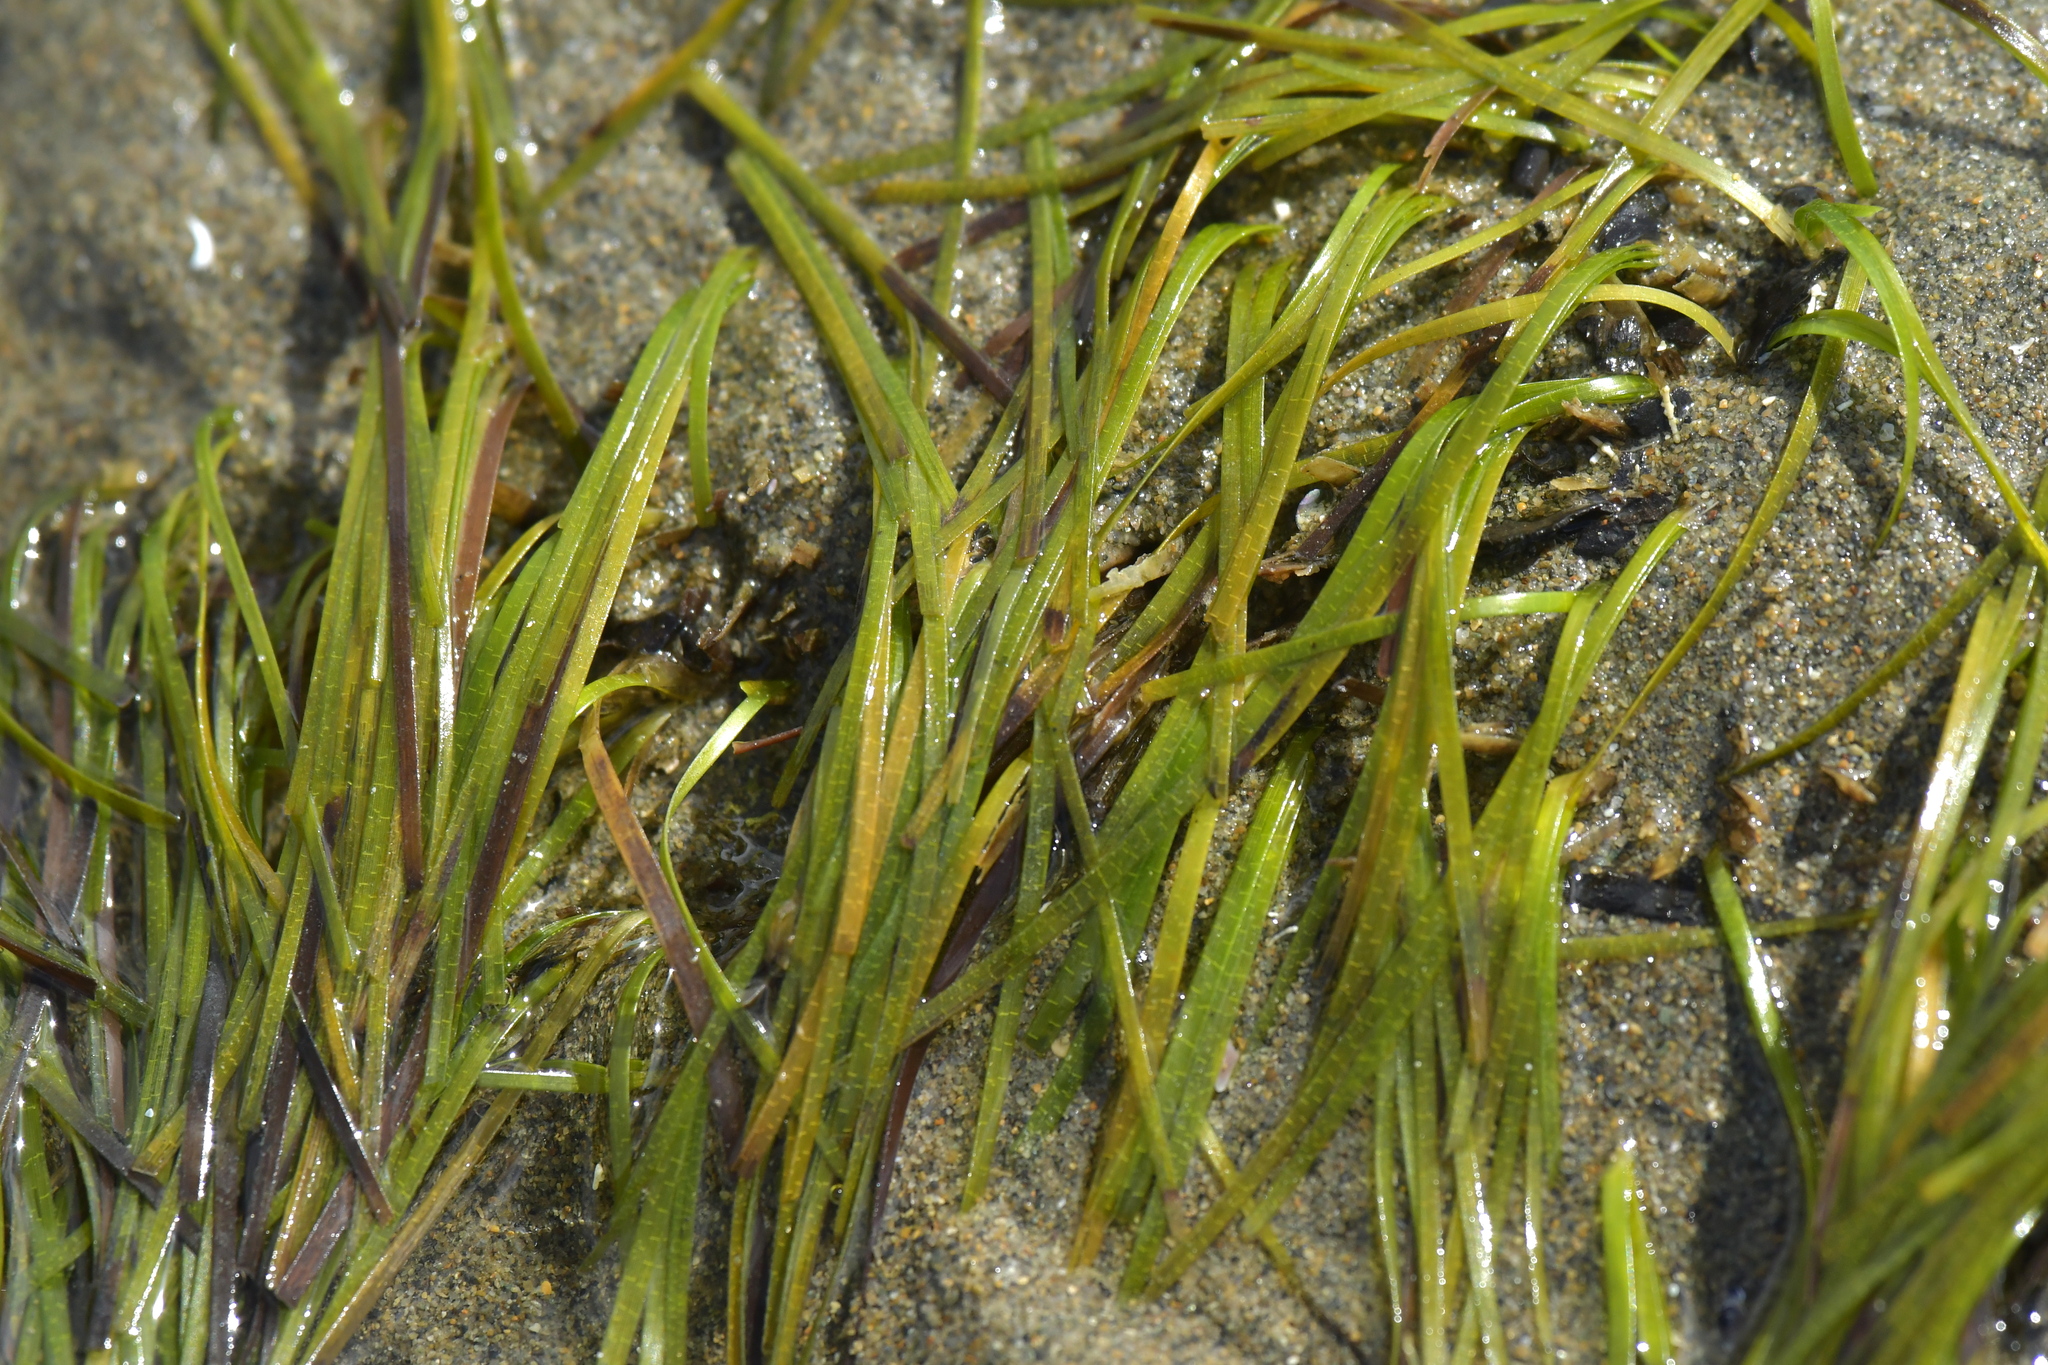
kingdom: Plantae
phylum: Tracheophyta
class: Liliopsida
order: Alismatales
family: Zosteraceae
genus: Zostera
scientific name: Zostera muelleri
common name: Species code: zc
